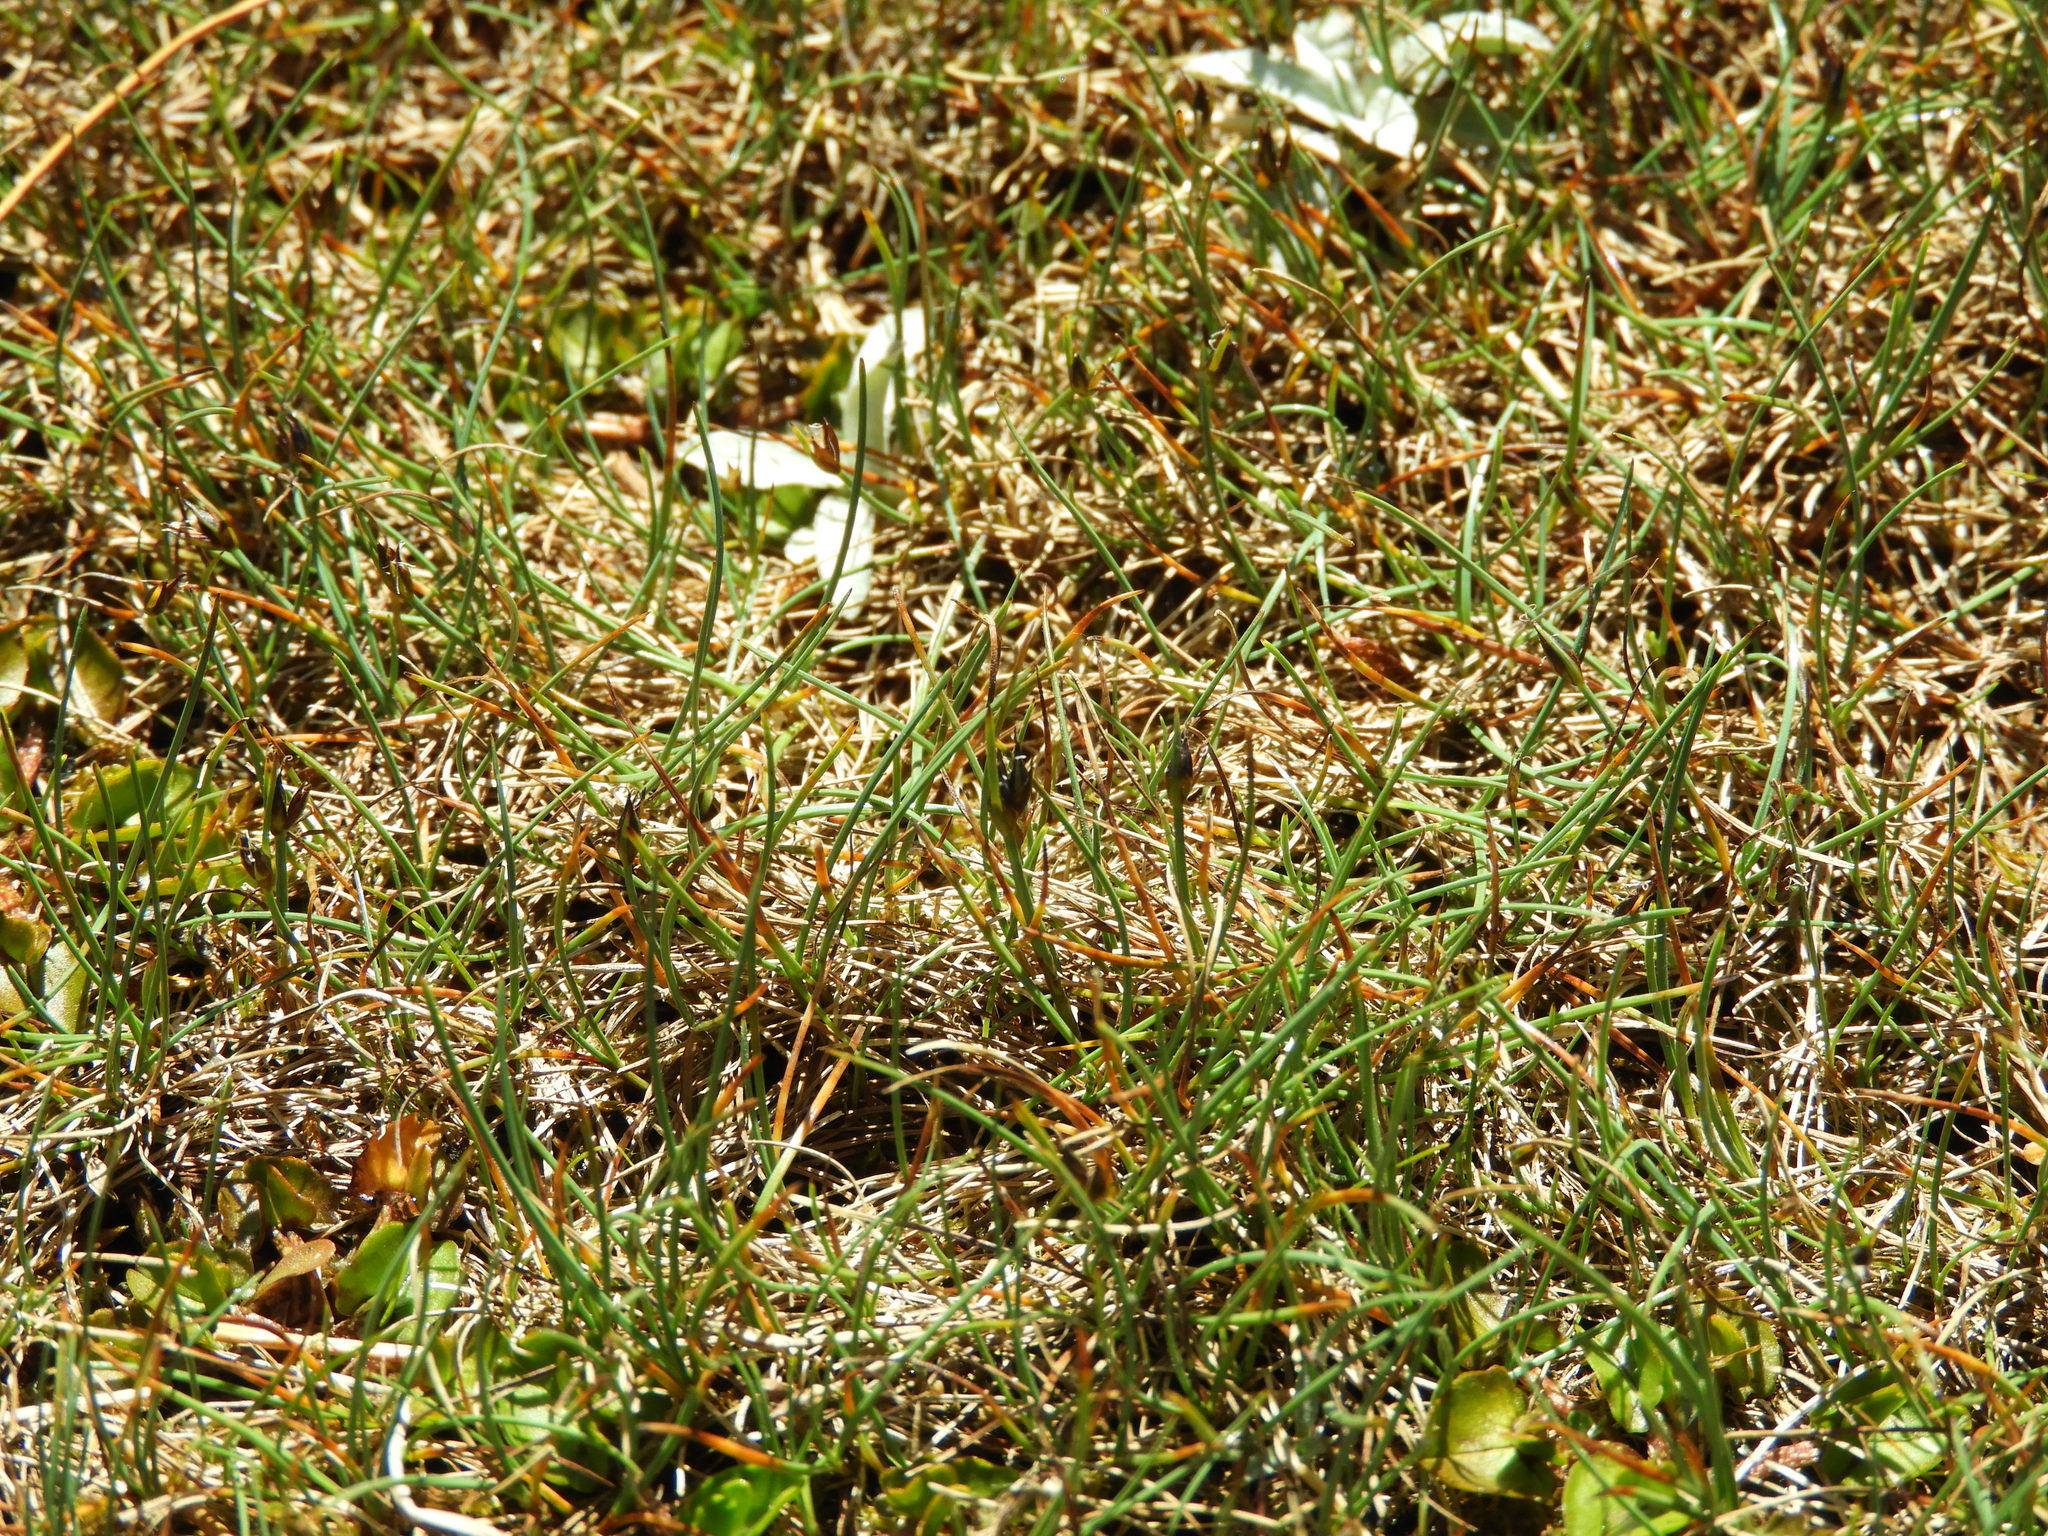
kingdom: Plantae
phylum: Tracheophyta
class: Liliopsida
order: Poales
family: Cyperaceae
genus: Carex
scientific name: Carex enysii
